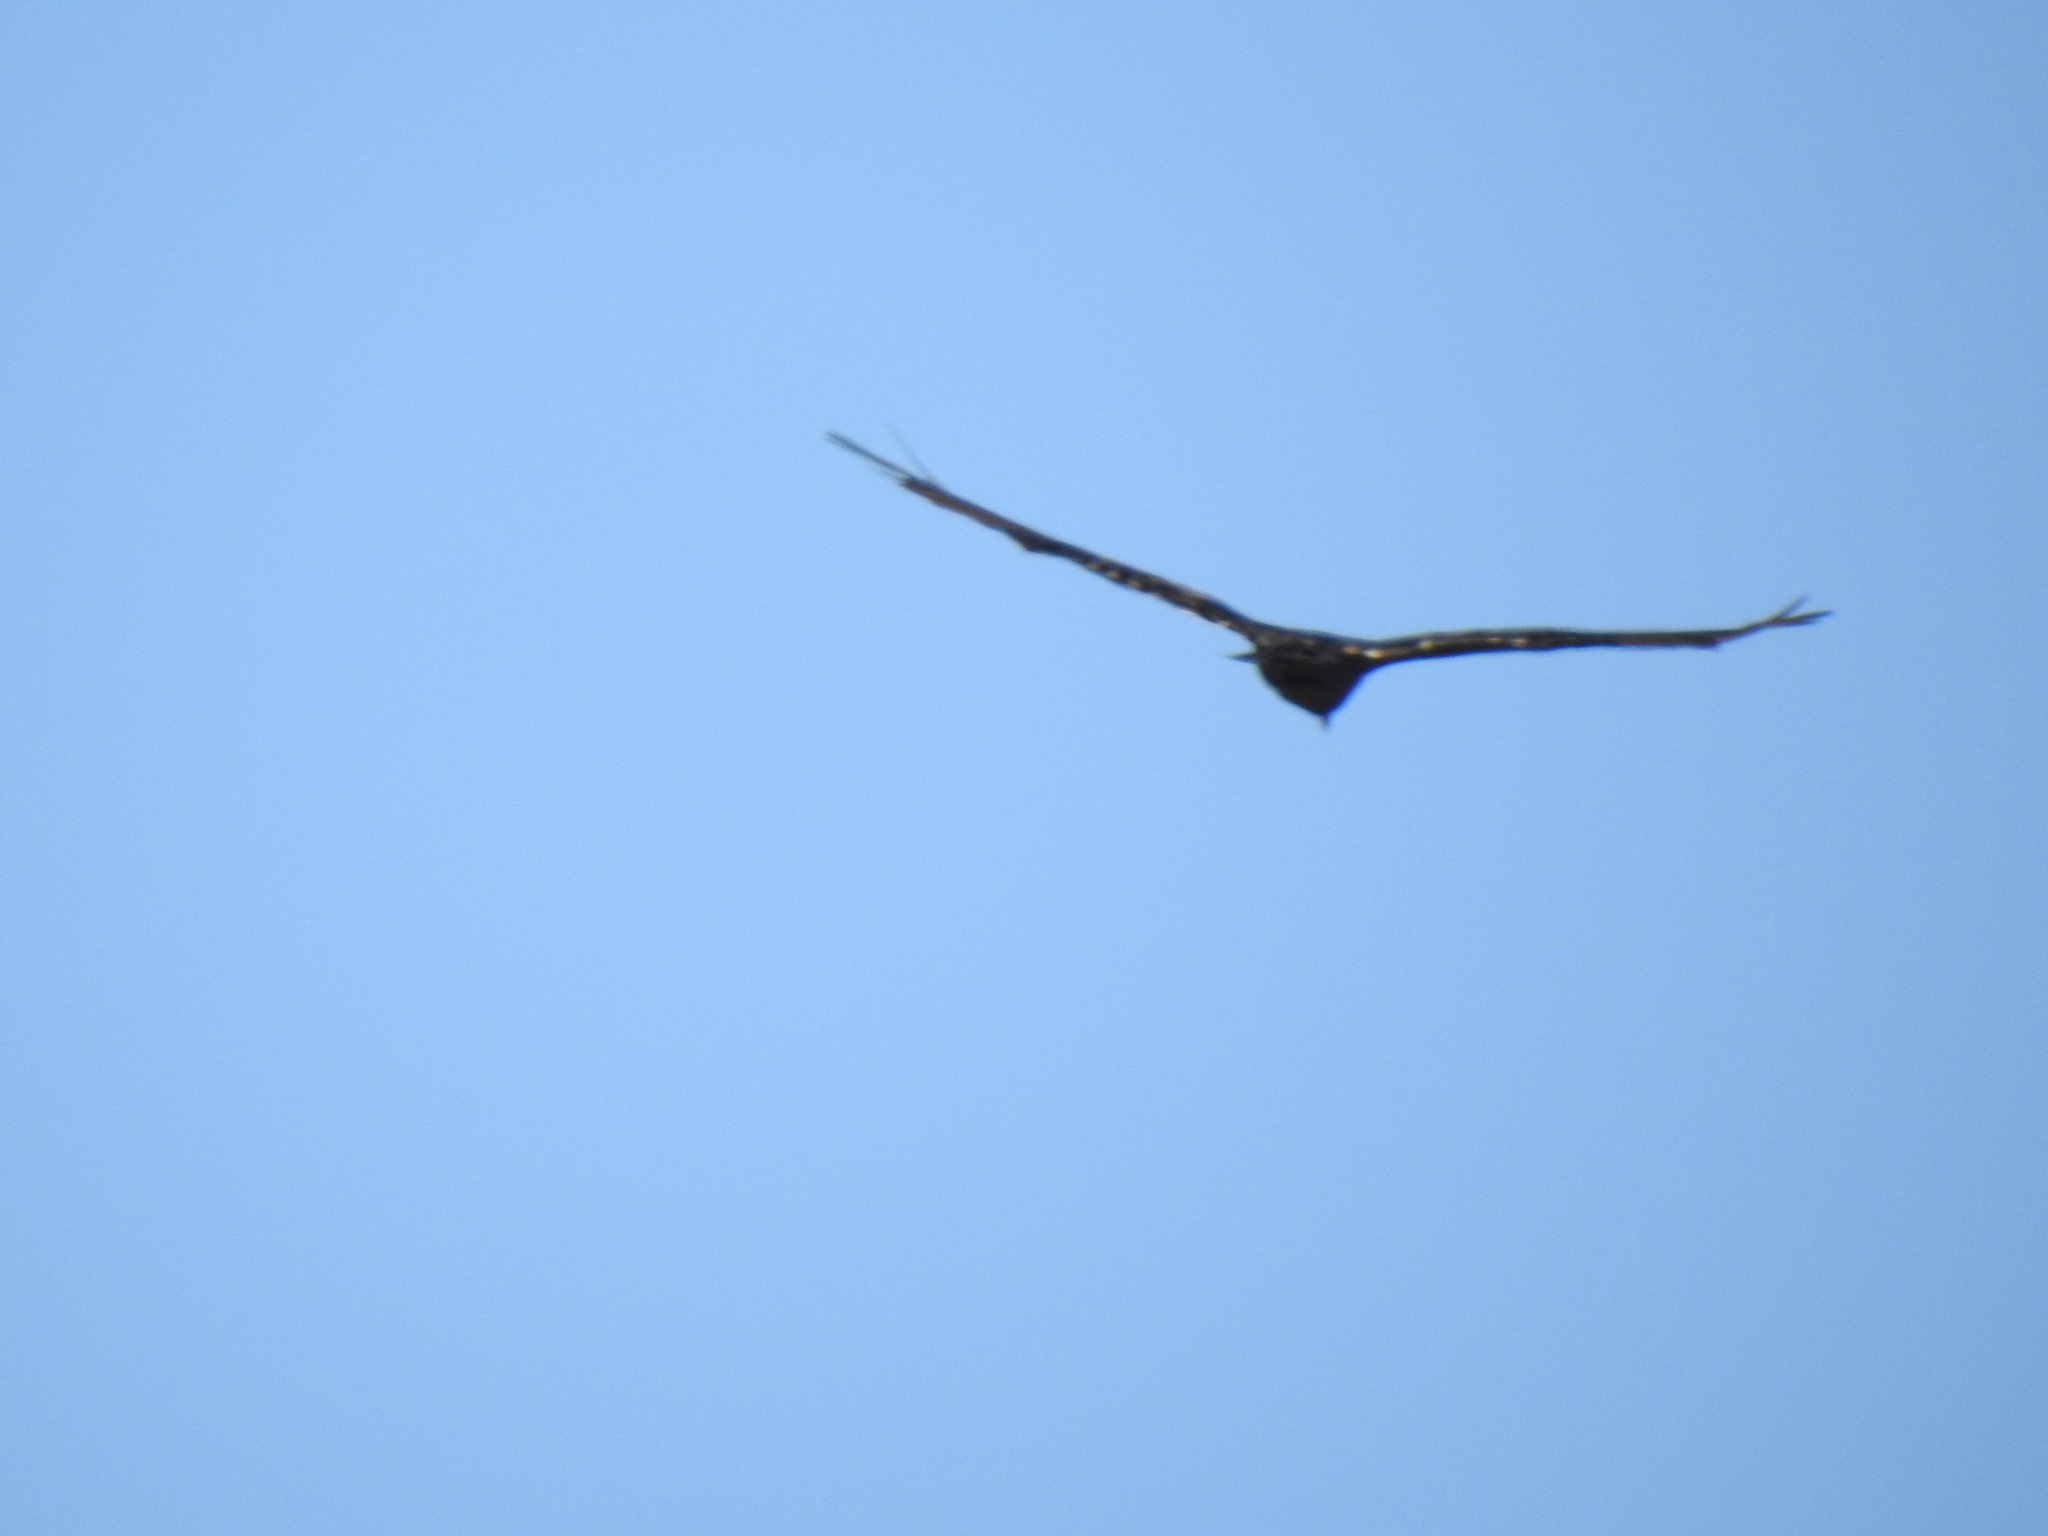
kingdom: Animalia
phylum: Chordata
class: Aves
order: Accipitriformes
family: Cathartidae
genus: Cathartes
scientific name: Cathartes aura
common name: Turkey vulture
